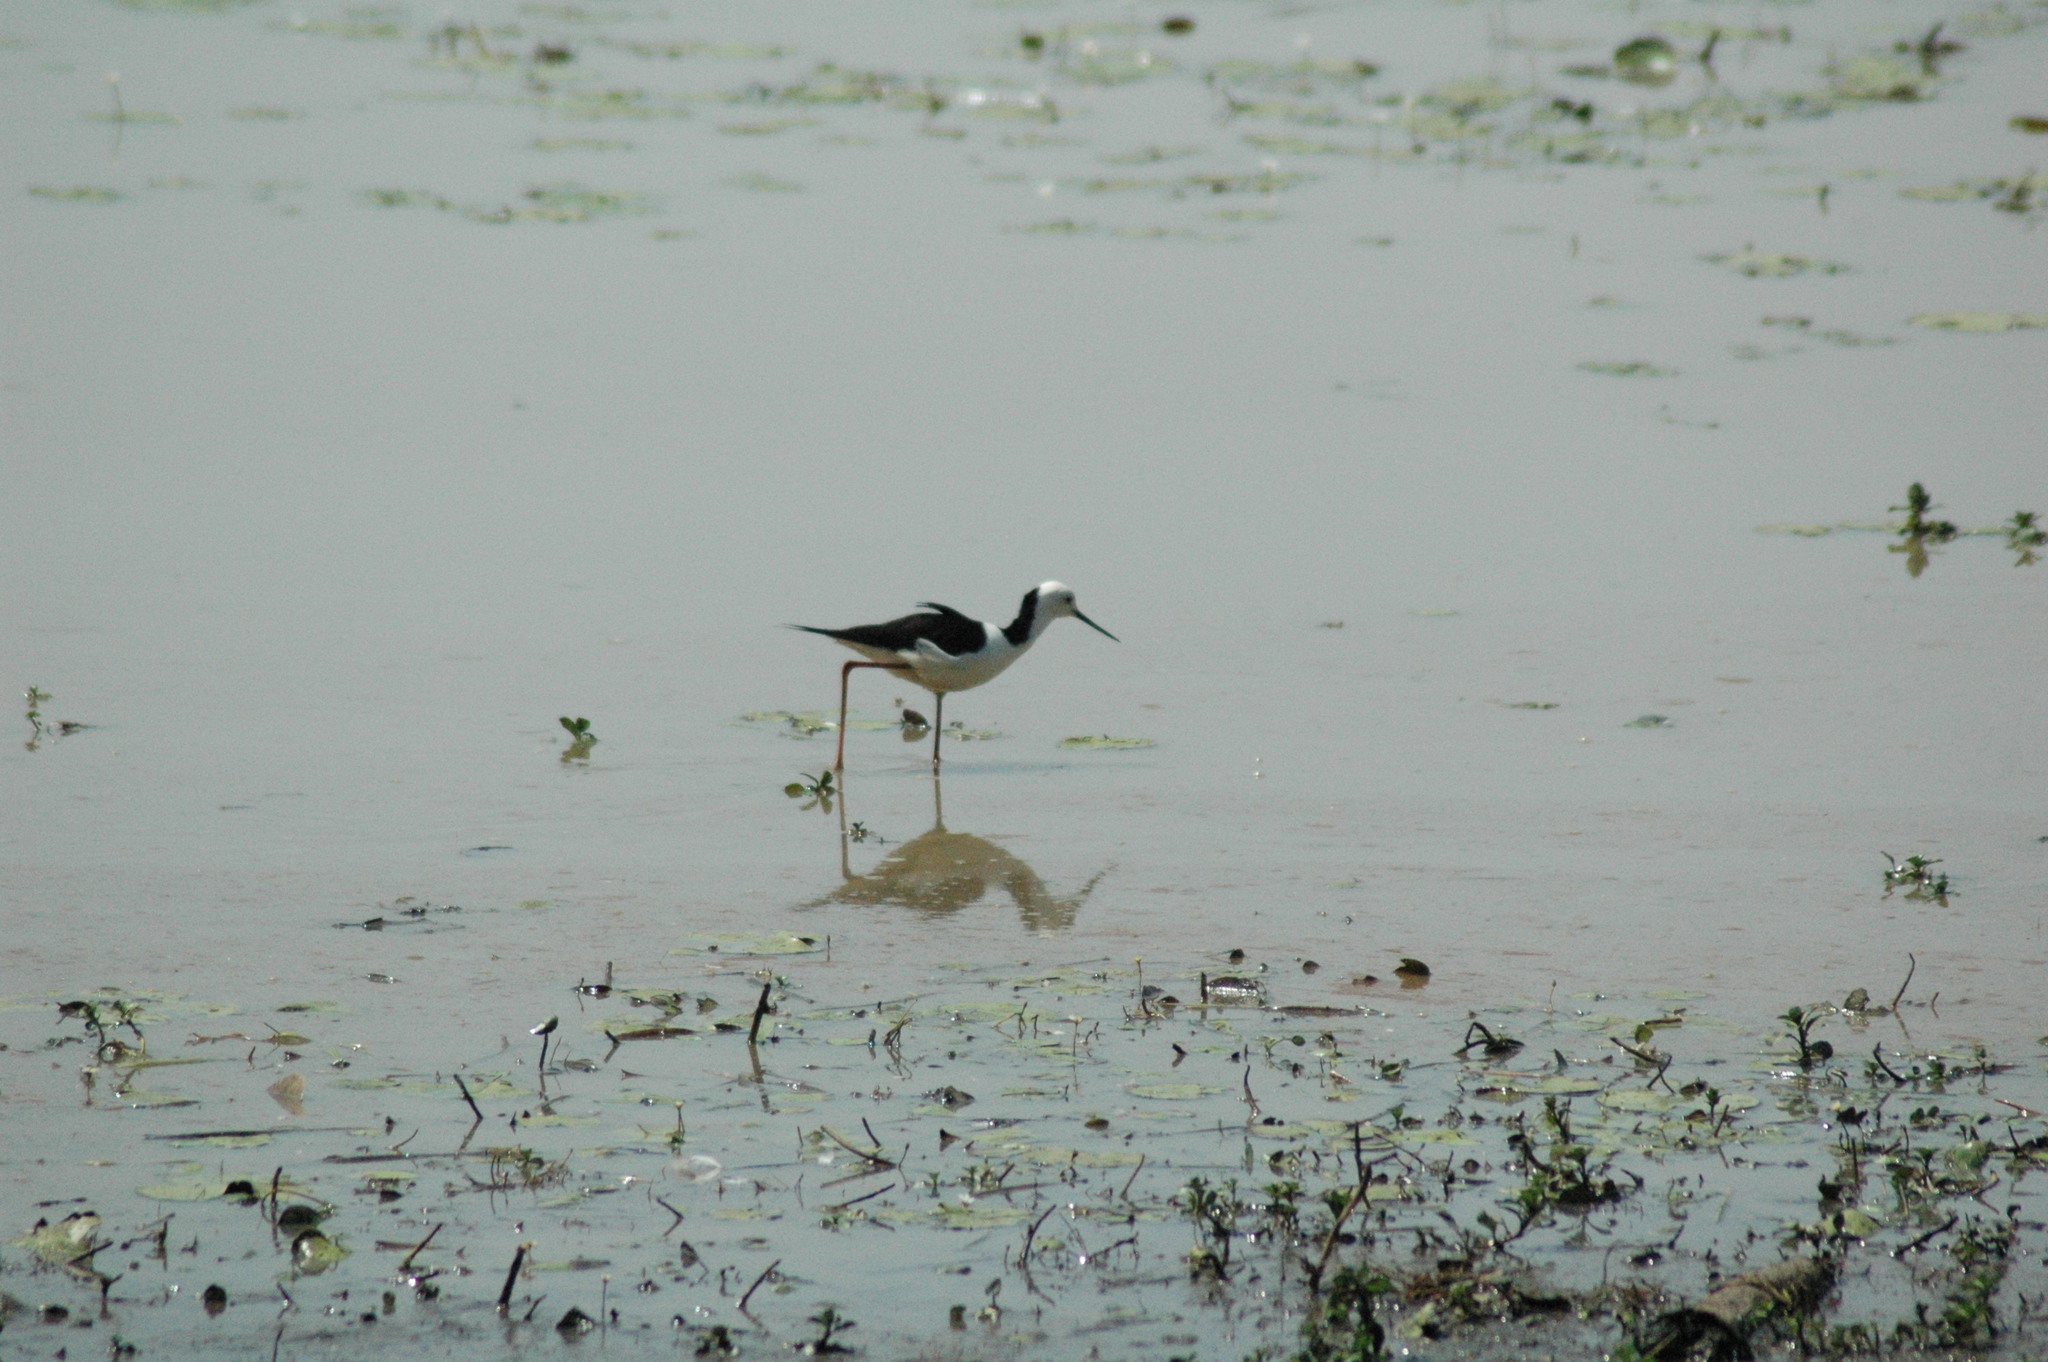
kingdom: Animalia
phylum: Chordata
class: Aves
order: Charadriiformes
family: Recurvirostridae
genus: Himantopus
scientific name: Himantopus leucocephalus
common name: White-headed stilt
